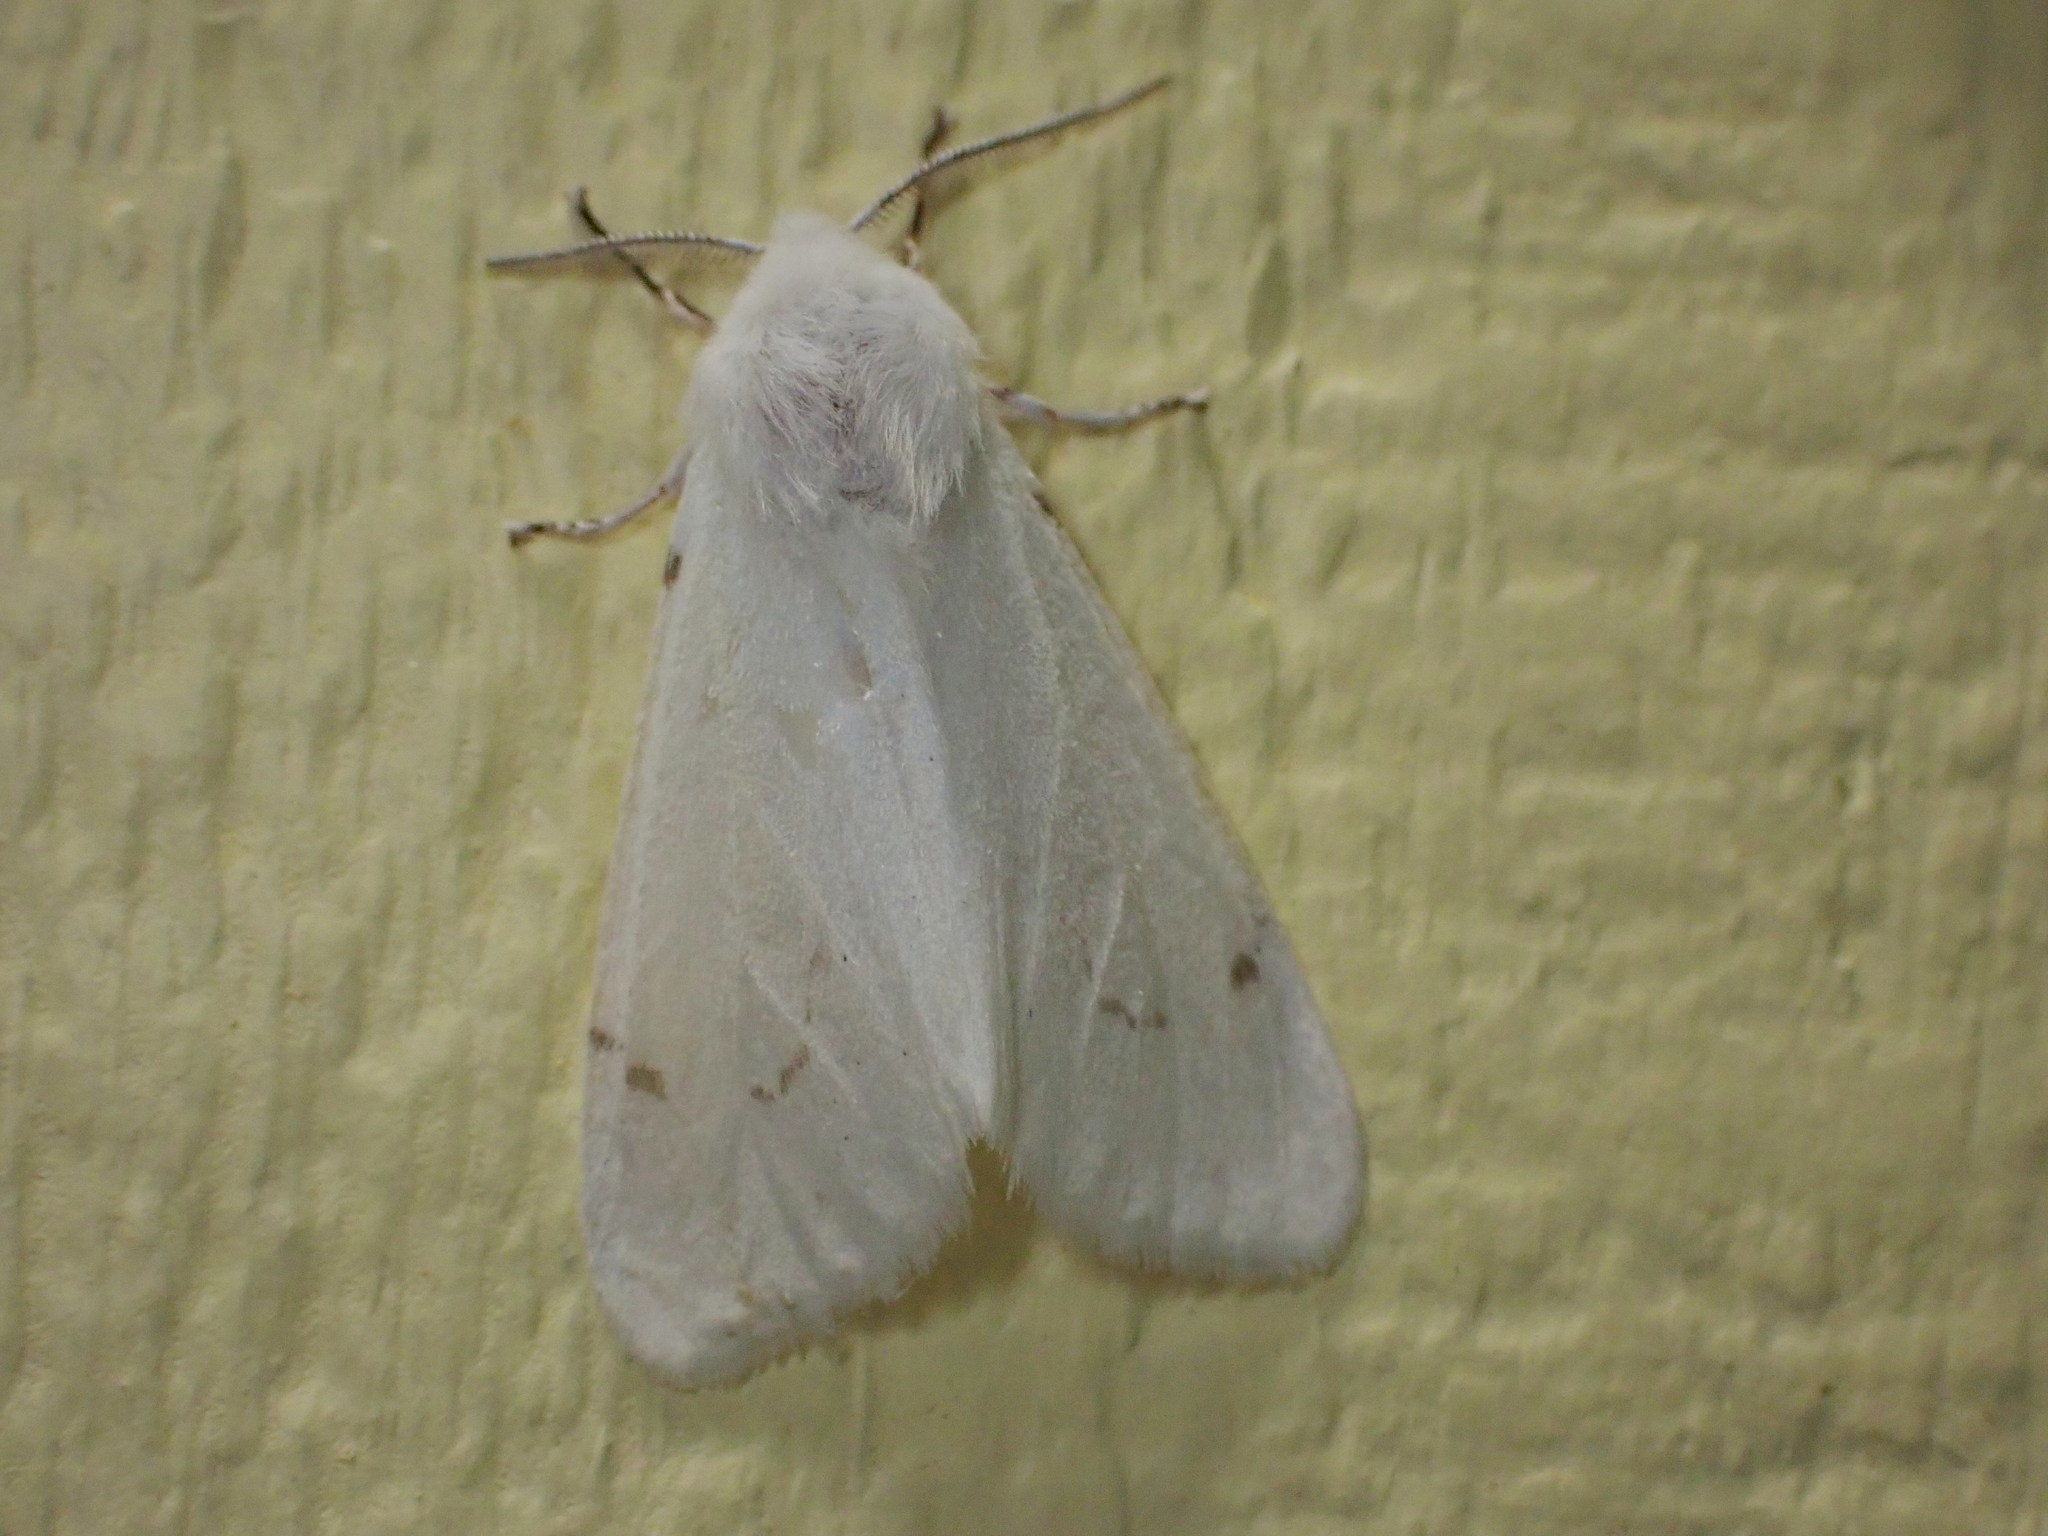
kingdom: Animalia
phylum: Arthropoda
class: Insecta
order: Lepidoptera
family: Erebidae
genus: Hyphantria
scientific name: Hyphantria cunea
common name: American white moth
